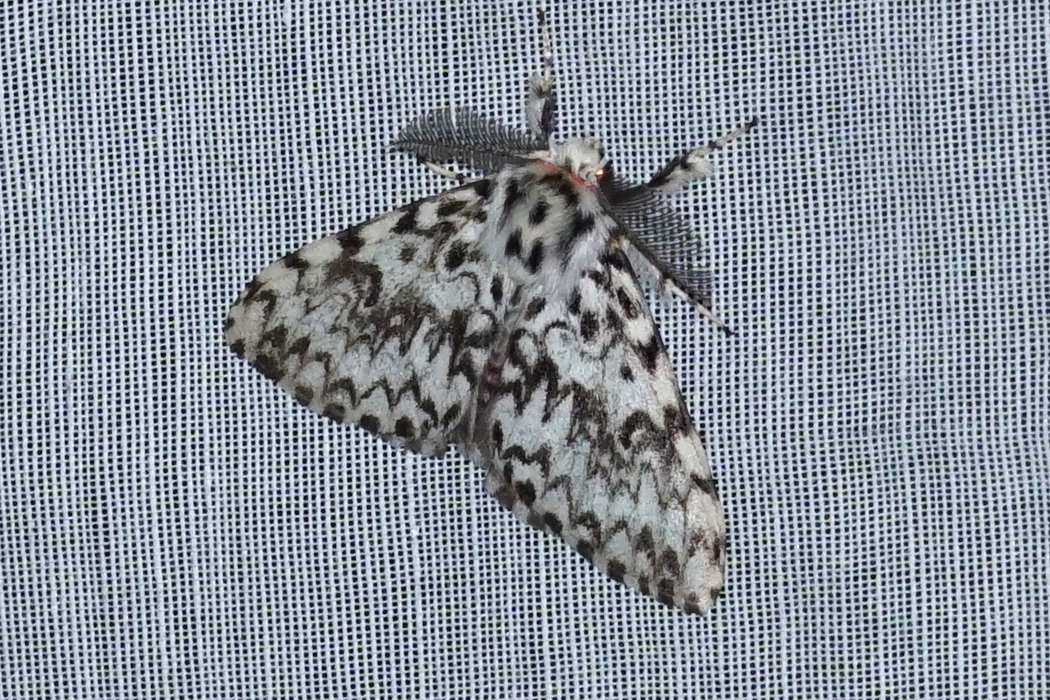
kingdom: Animalia
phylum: Arthropoda
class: Insecta
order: Lepidoptera
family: Erebidae
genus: Lymantria
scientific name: Lymantria monacha
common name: Black arches
